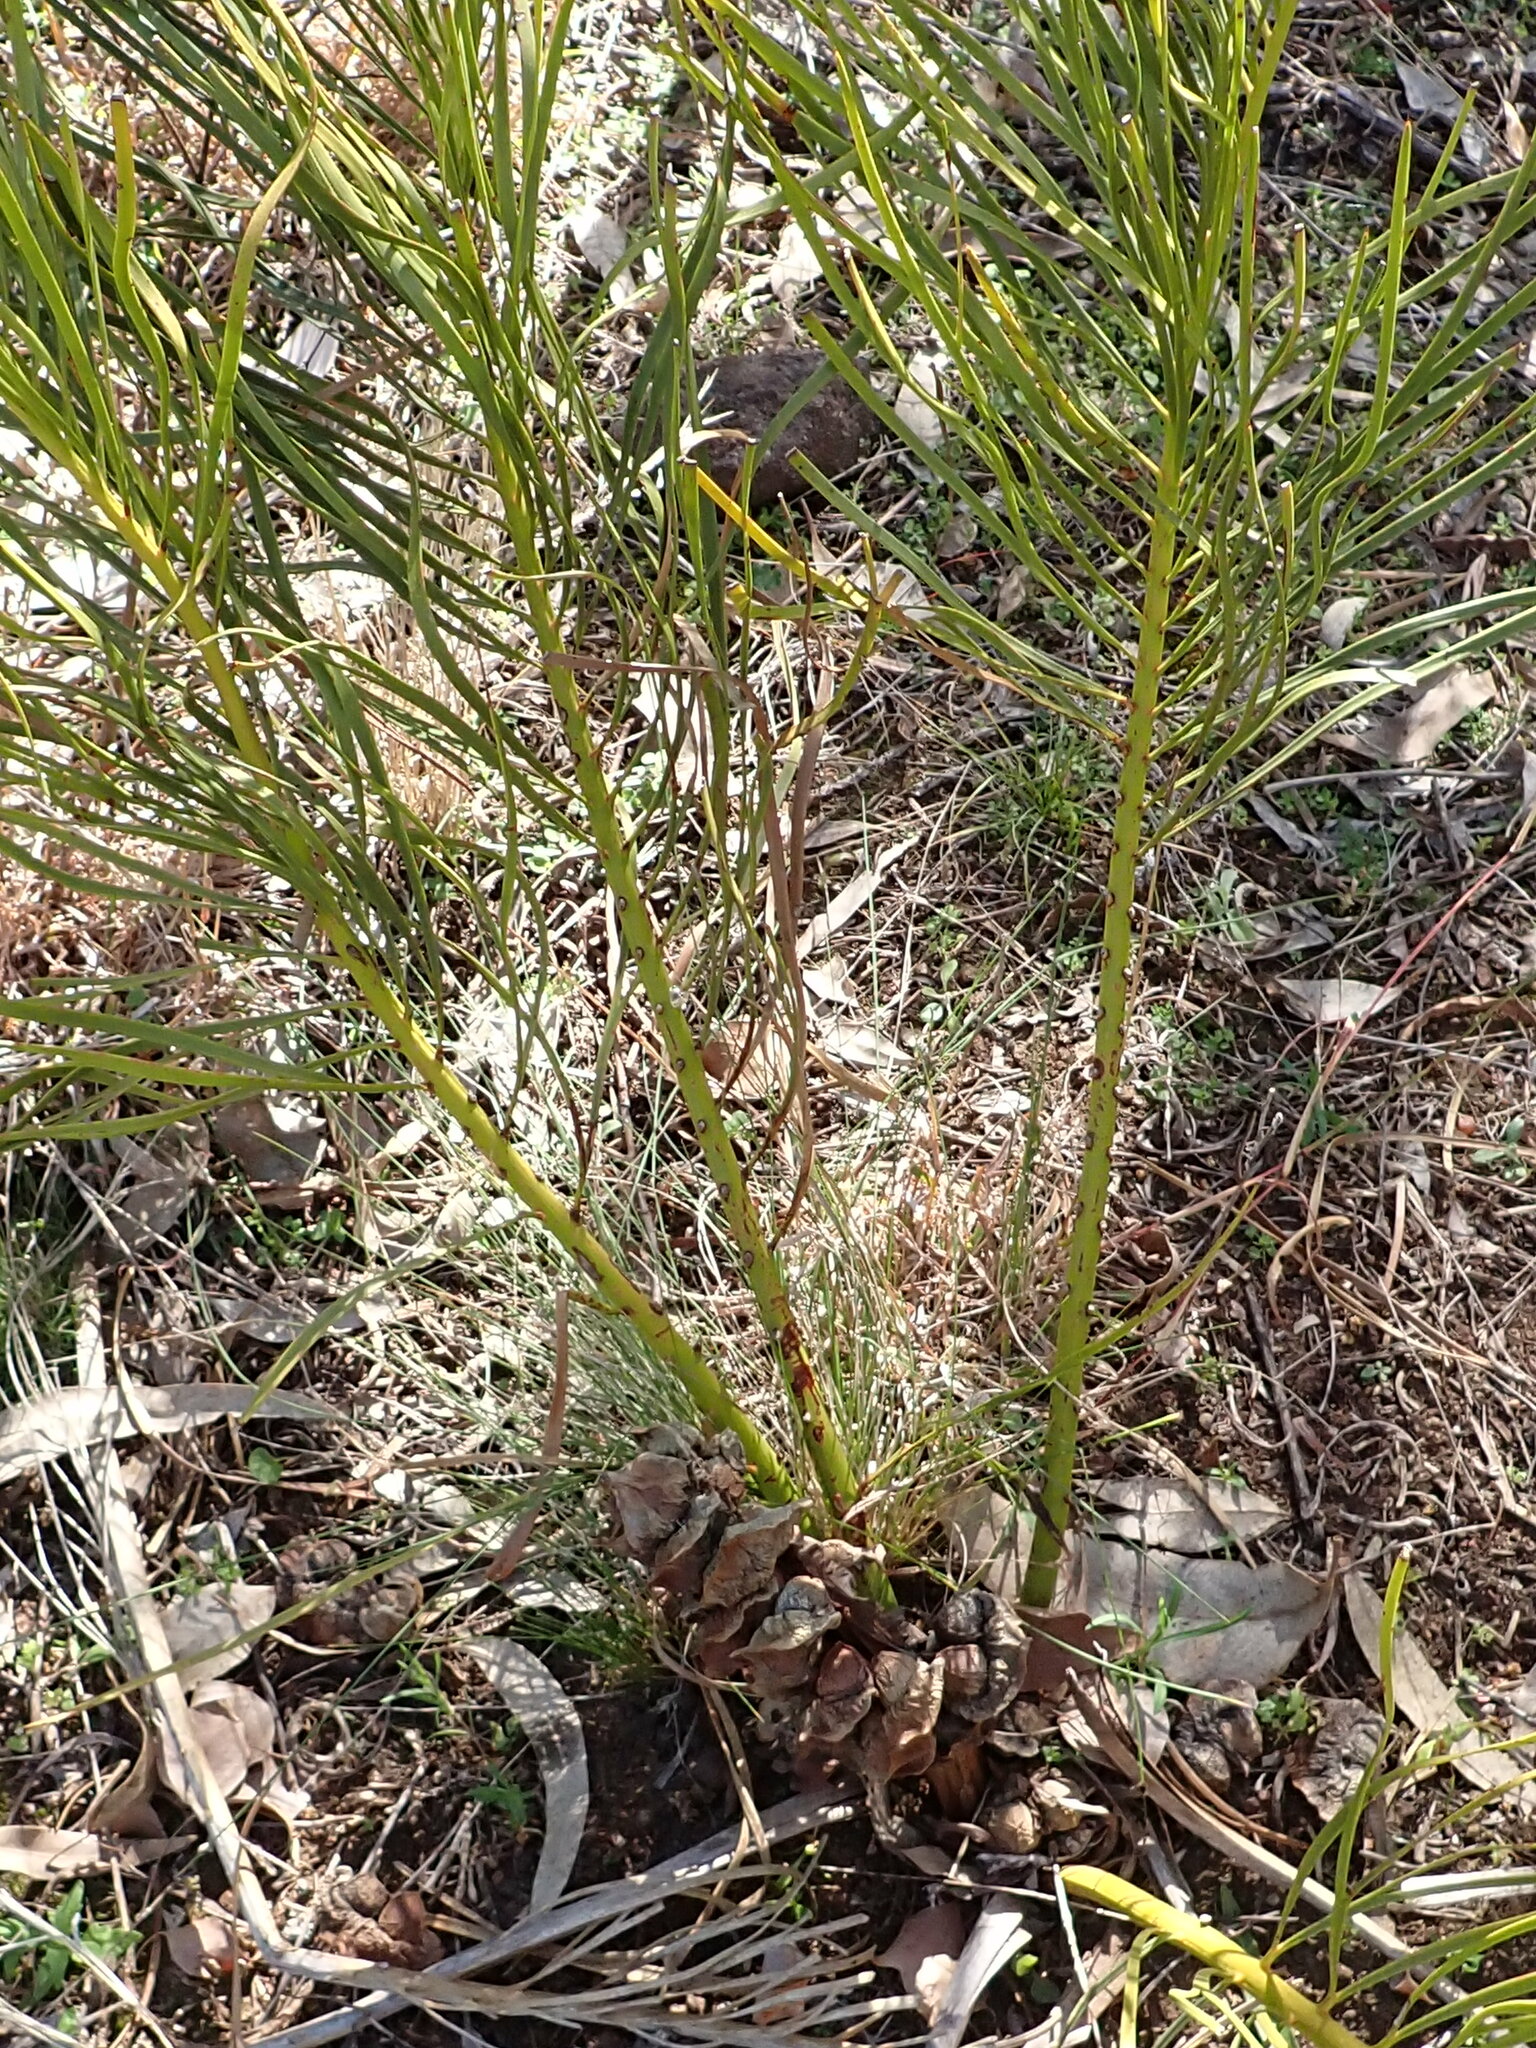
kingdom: Plantae
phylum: Tracheophyta
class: Cycadopsida
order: Cycadales
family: Zamiaceae
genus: Macrozamia
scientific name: Macrozamia heteromera
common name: Burrawang
